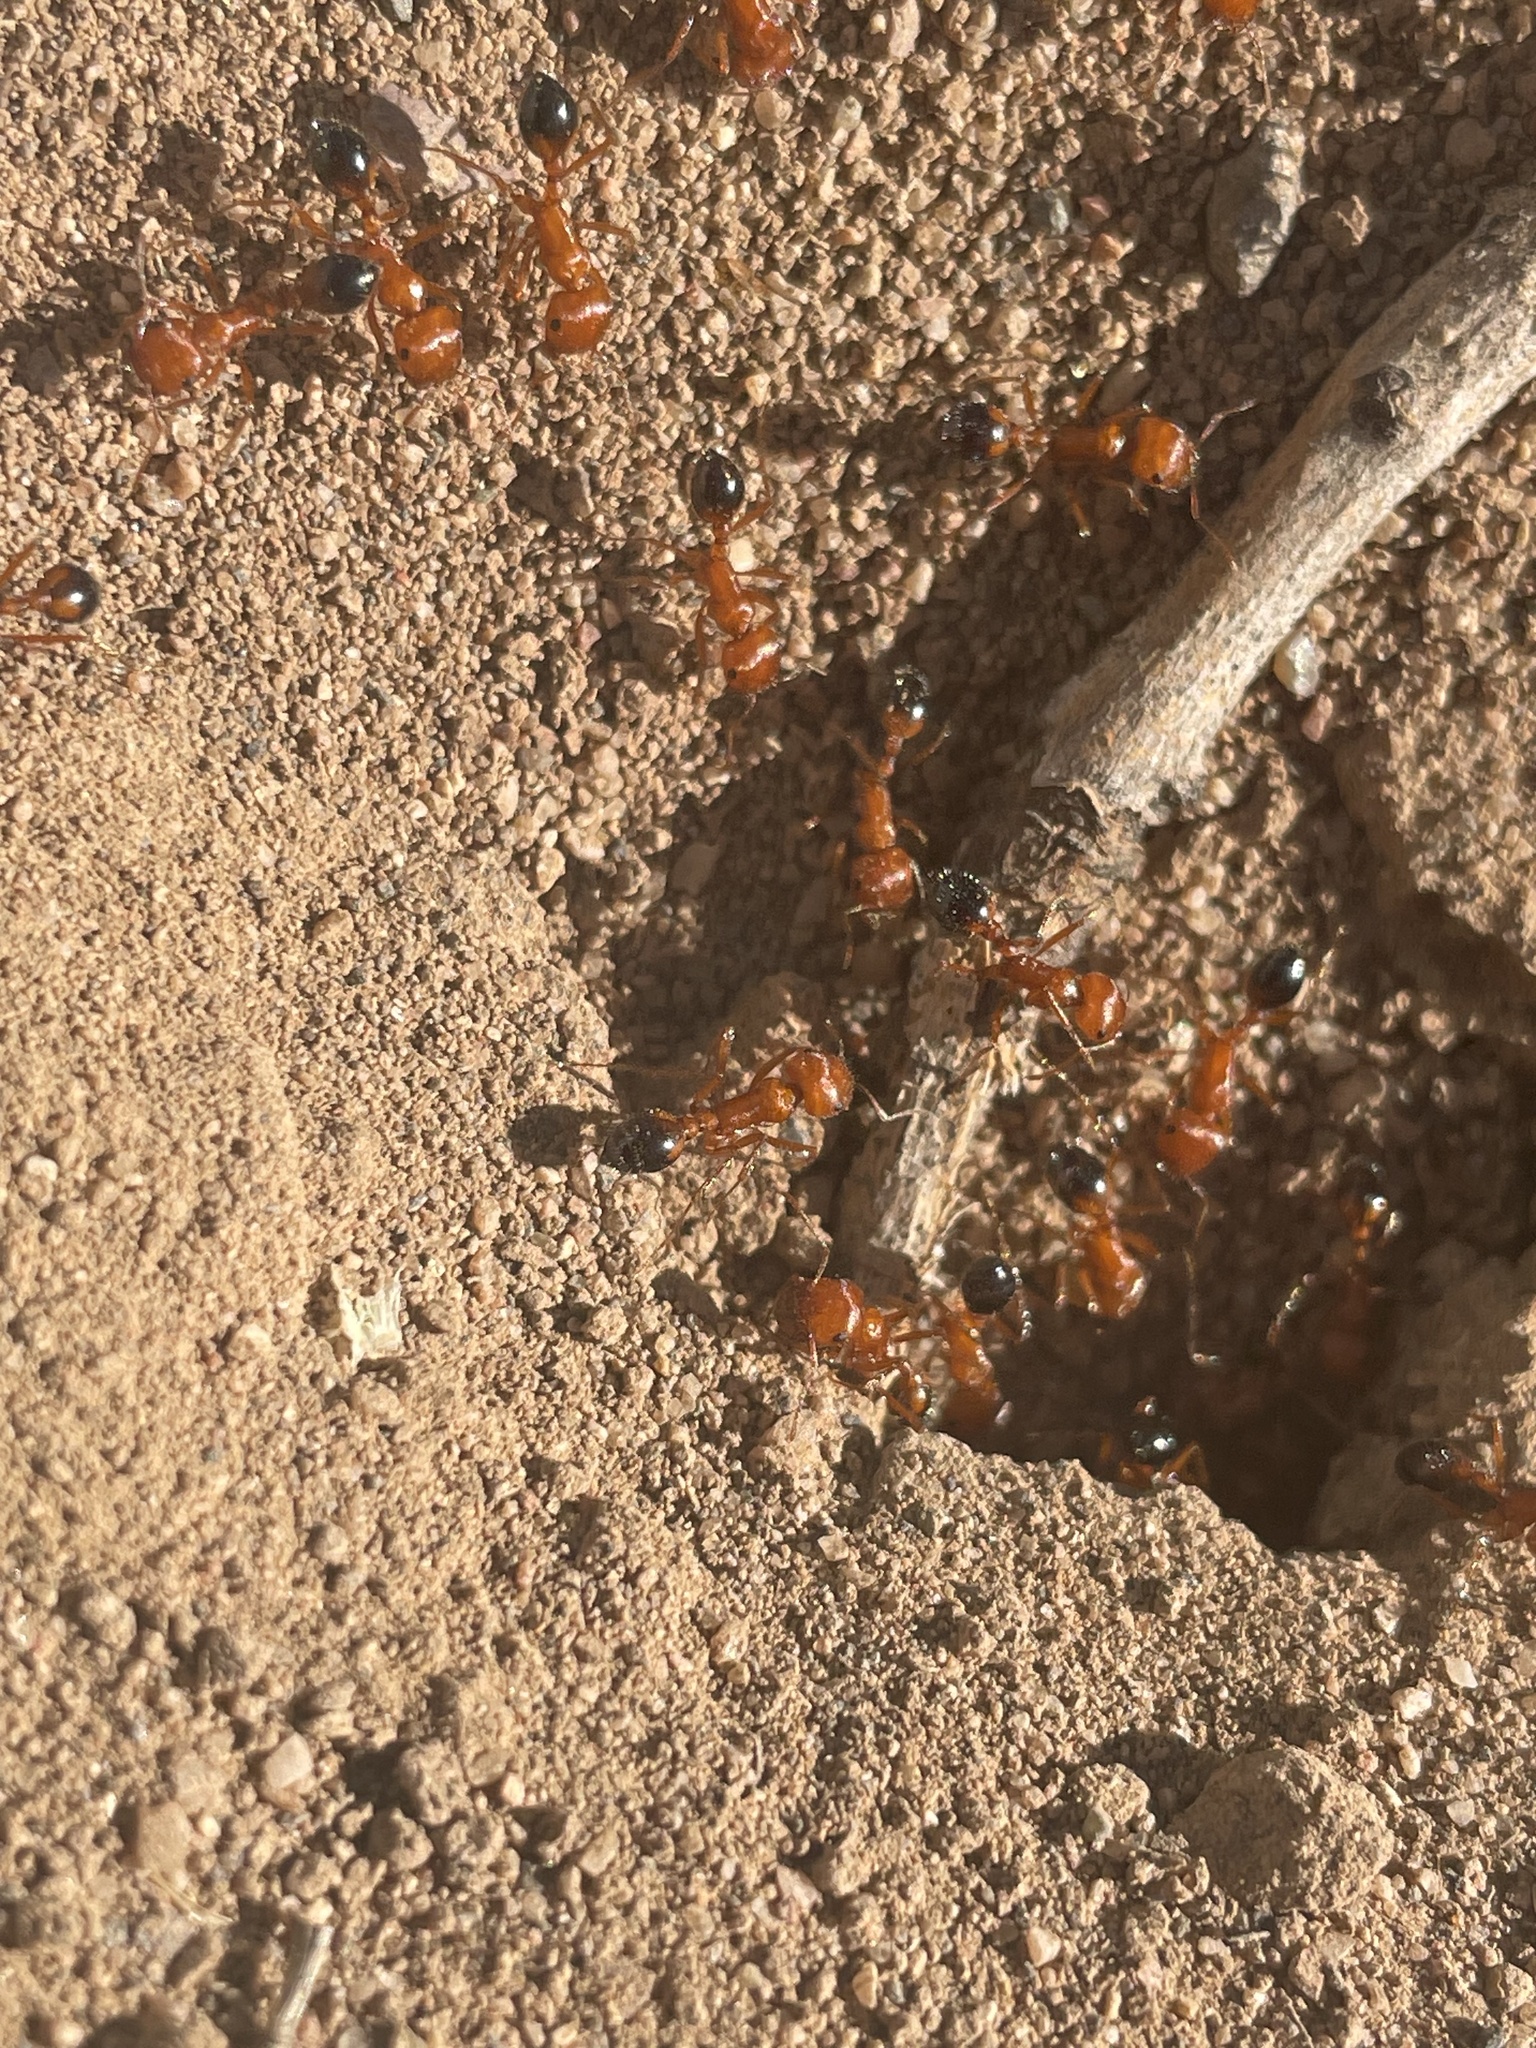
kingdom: Animalia
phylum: Arthropoda
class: Insecta
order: Hymenoptera
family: Formicidae
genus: Pogonomyrmex
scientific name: Pogonomyrmex californicus
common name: California harvester ant
